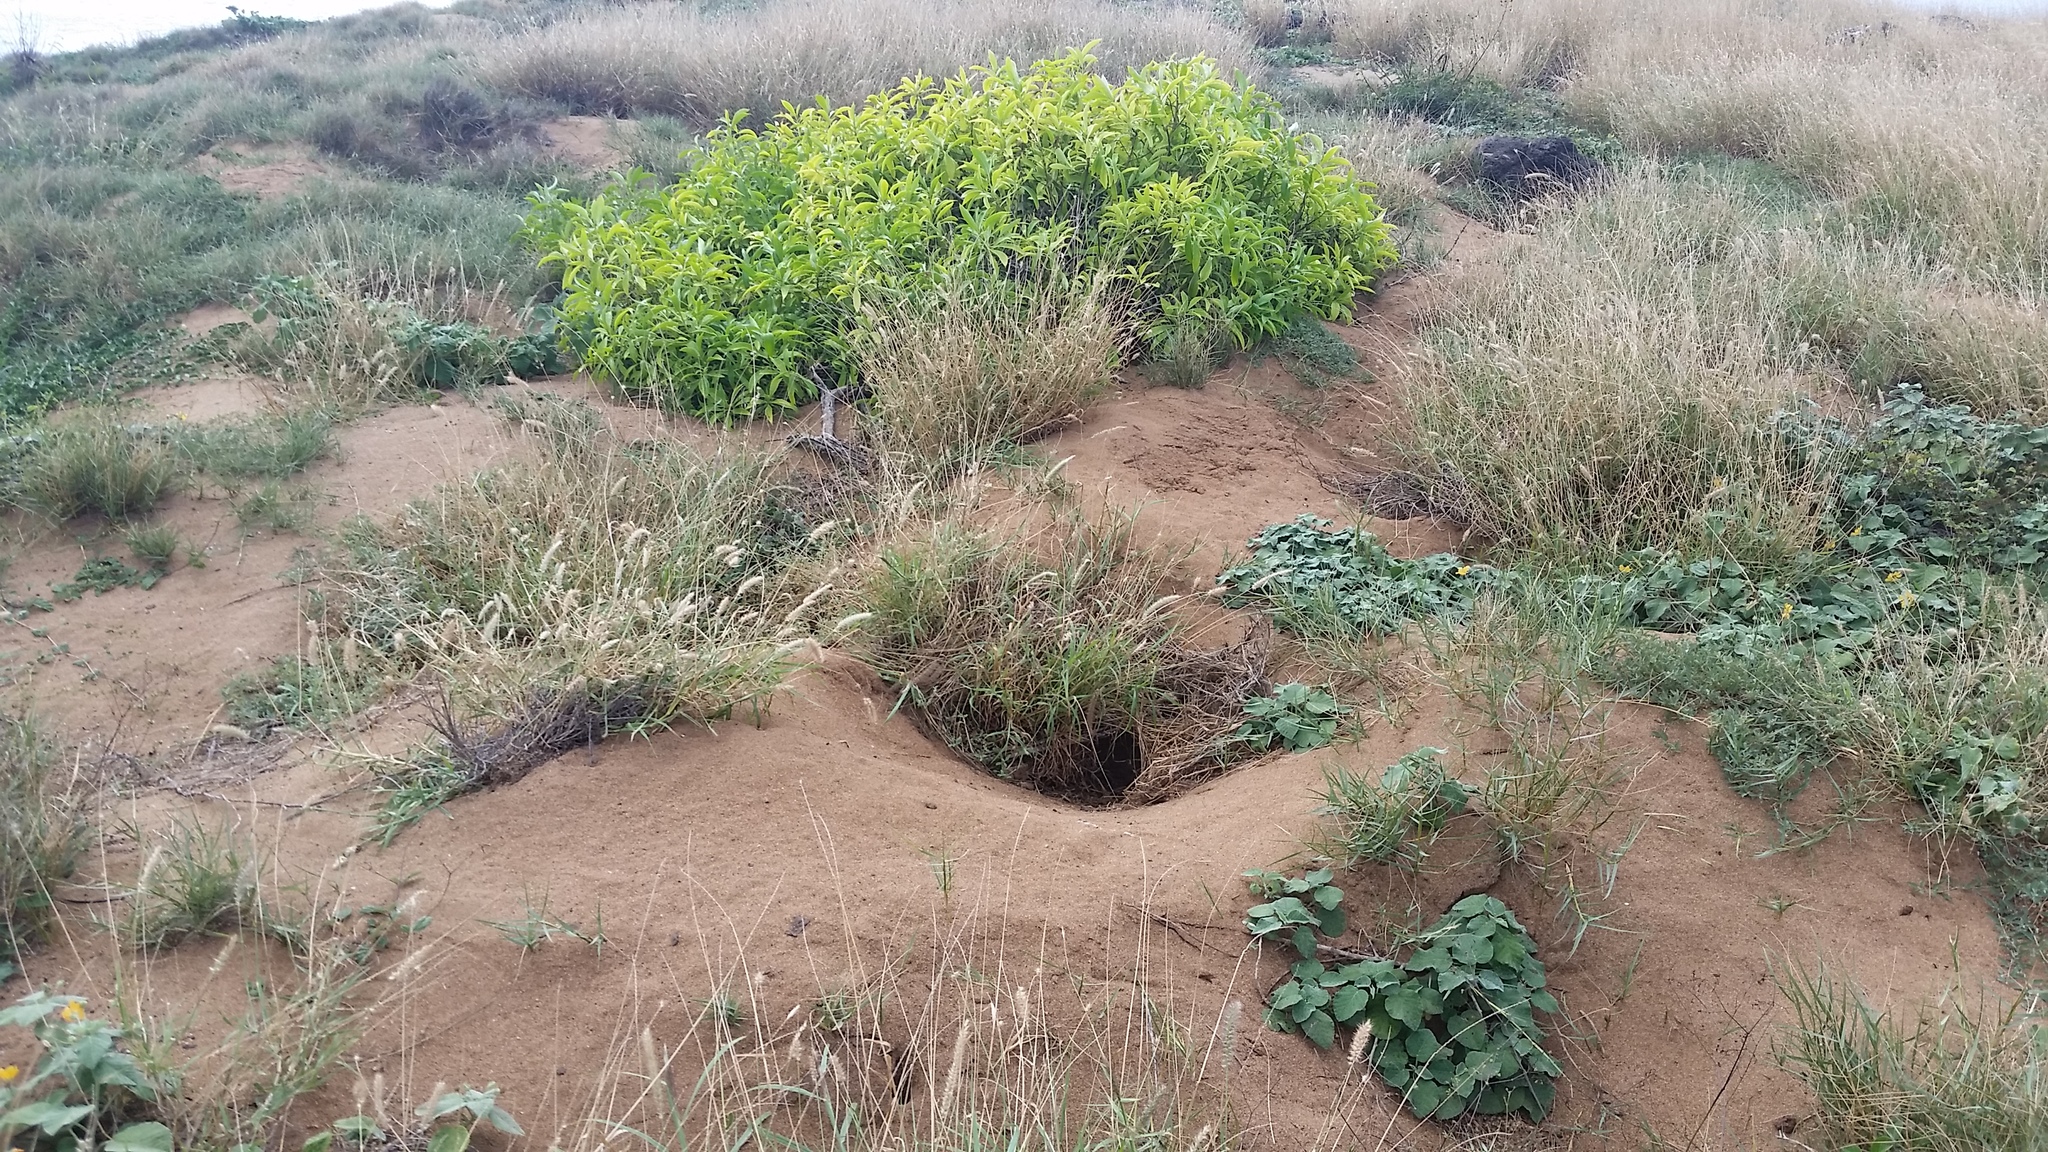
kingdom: Animalia
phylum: Chordata
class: Aves
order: Procellariiformes
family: Procellariidae
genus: Puffinus
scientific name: Puffinus pacificus
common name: Wedge-tailed shearwater
